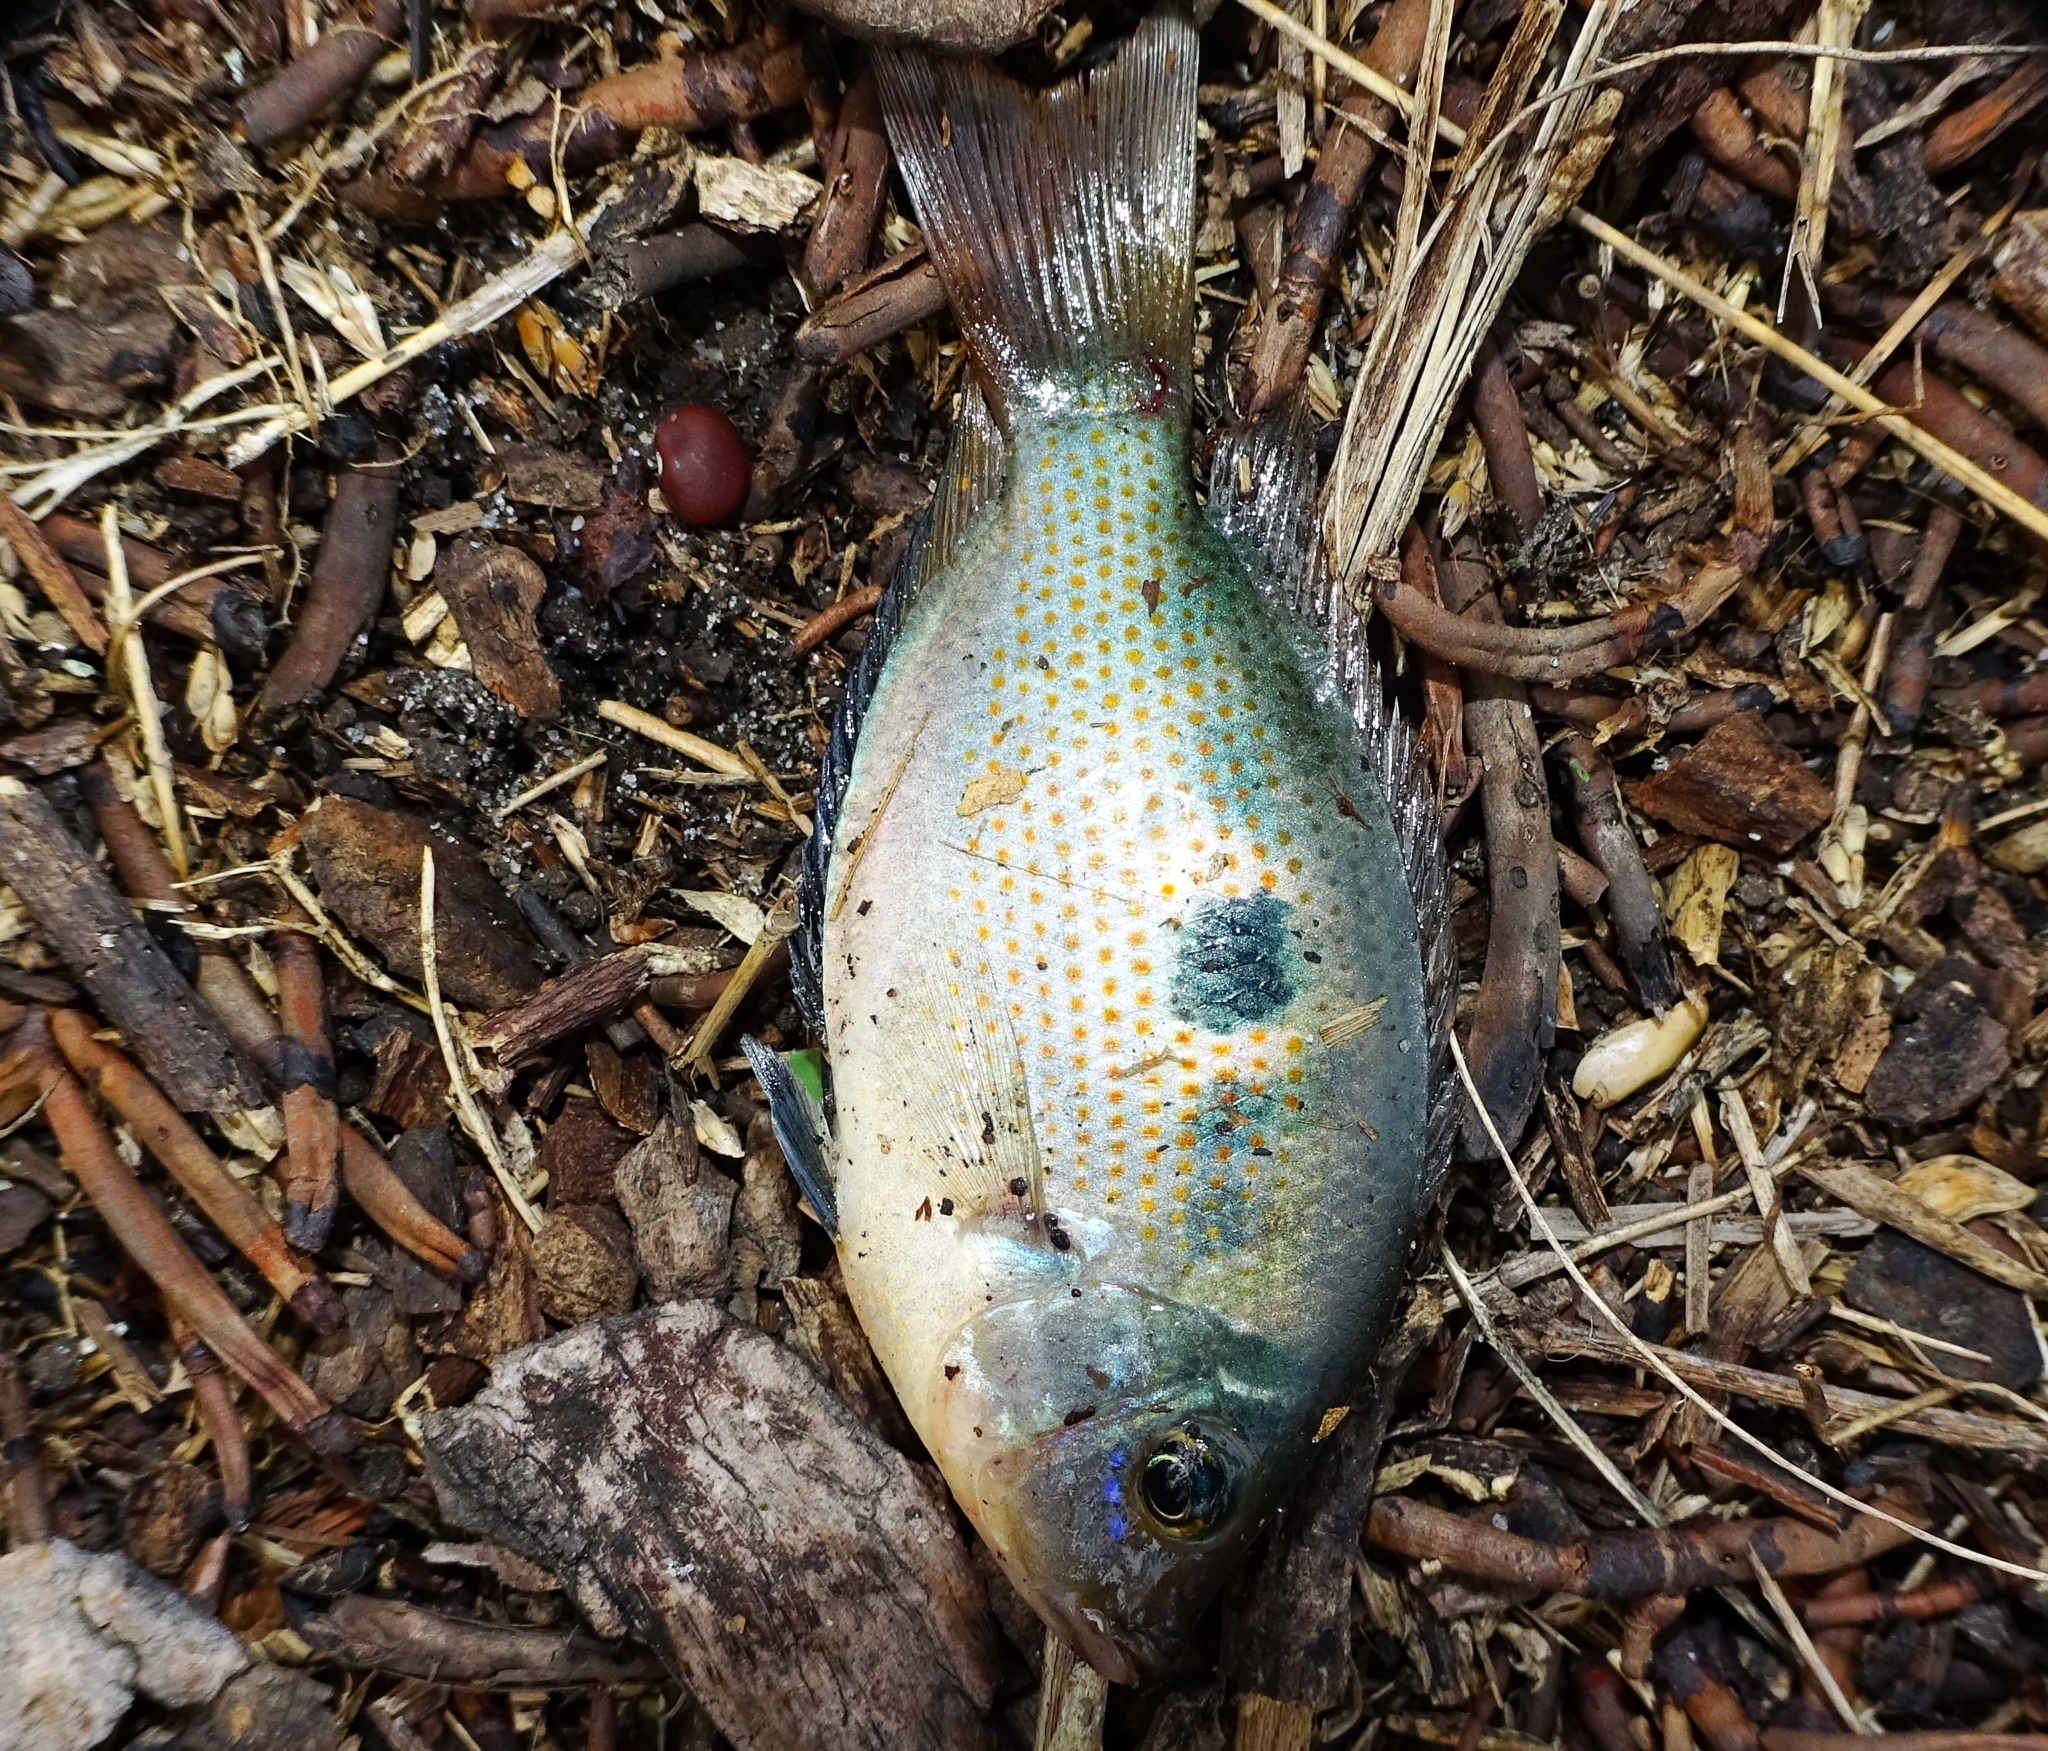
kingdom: Animalia
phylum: Chordata
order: Perciformes
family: Cichlidae
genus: Etroplus
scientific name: Etroplus maculatus
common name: Orange chromide
